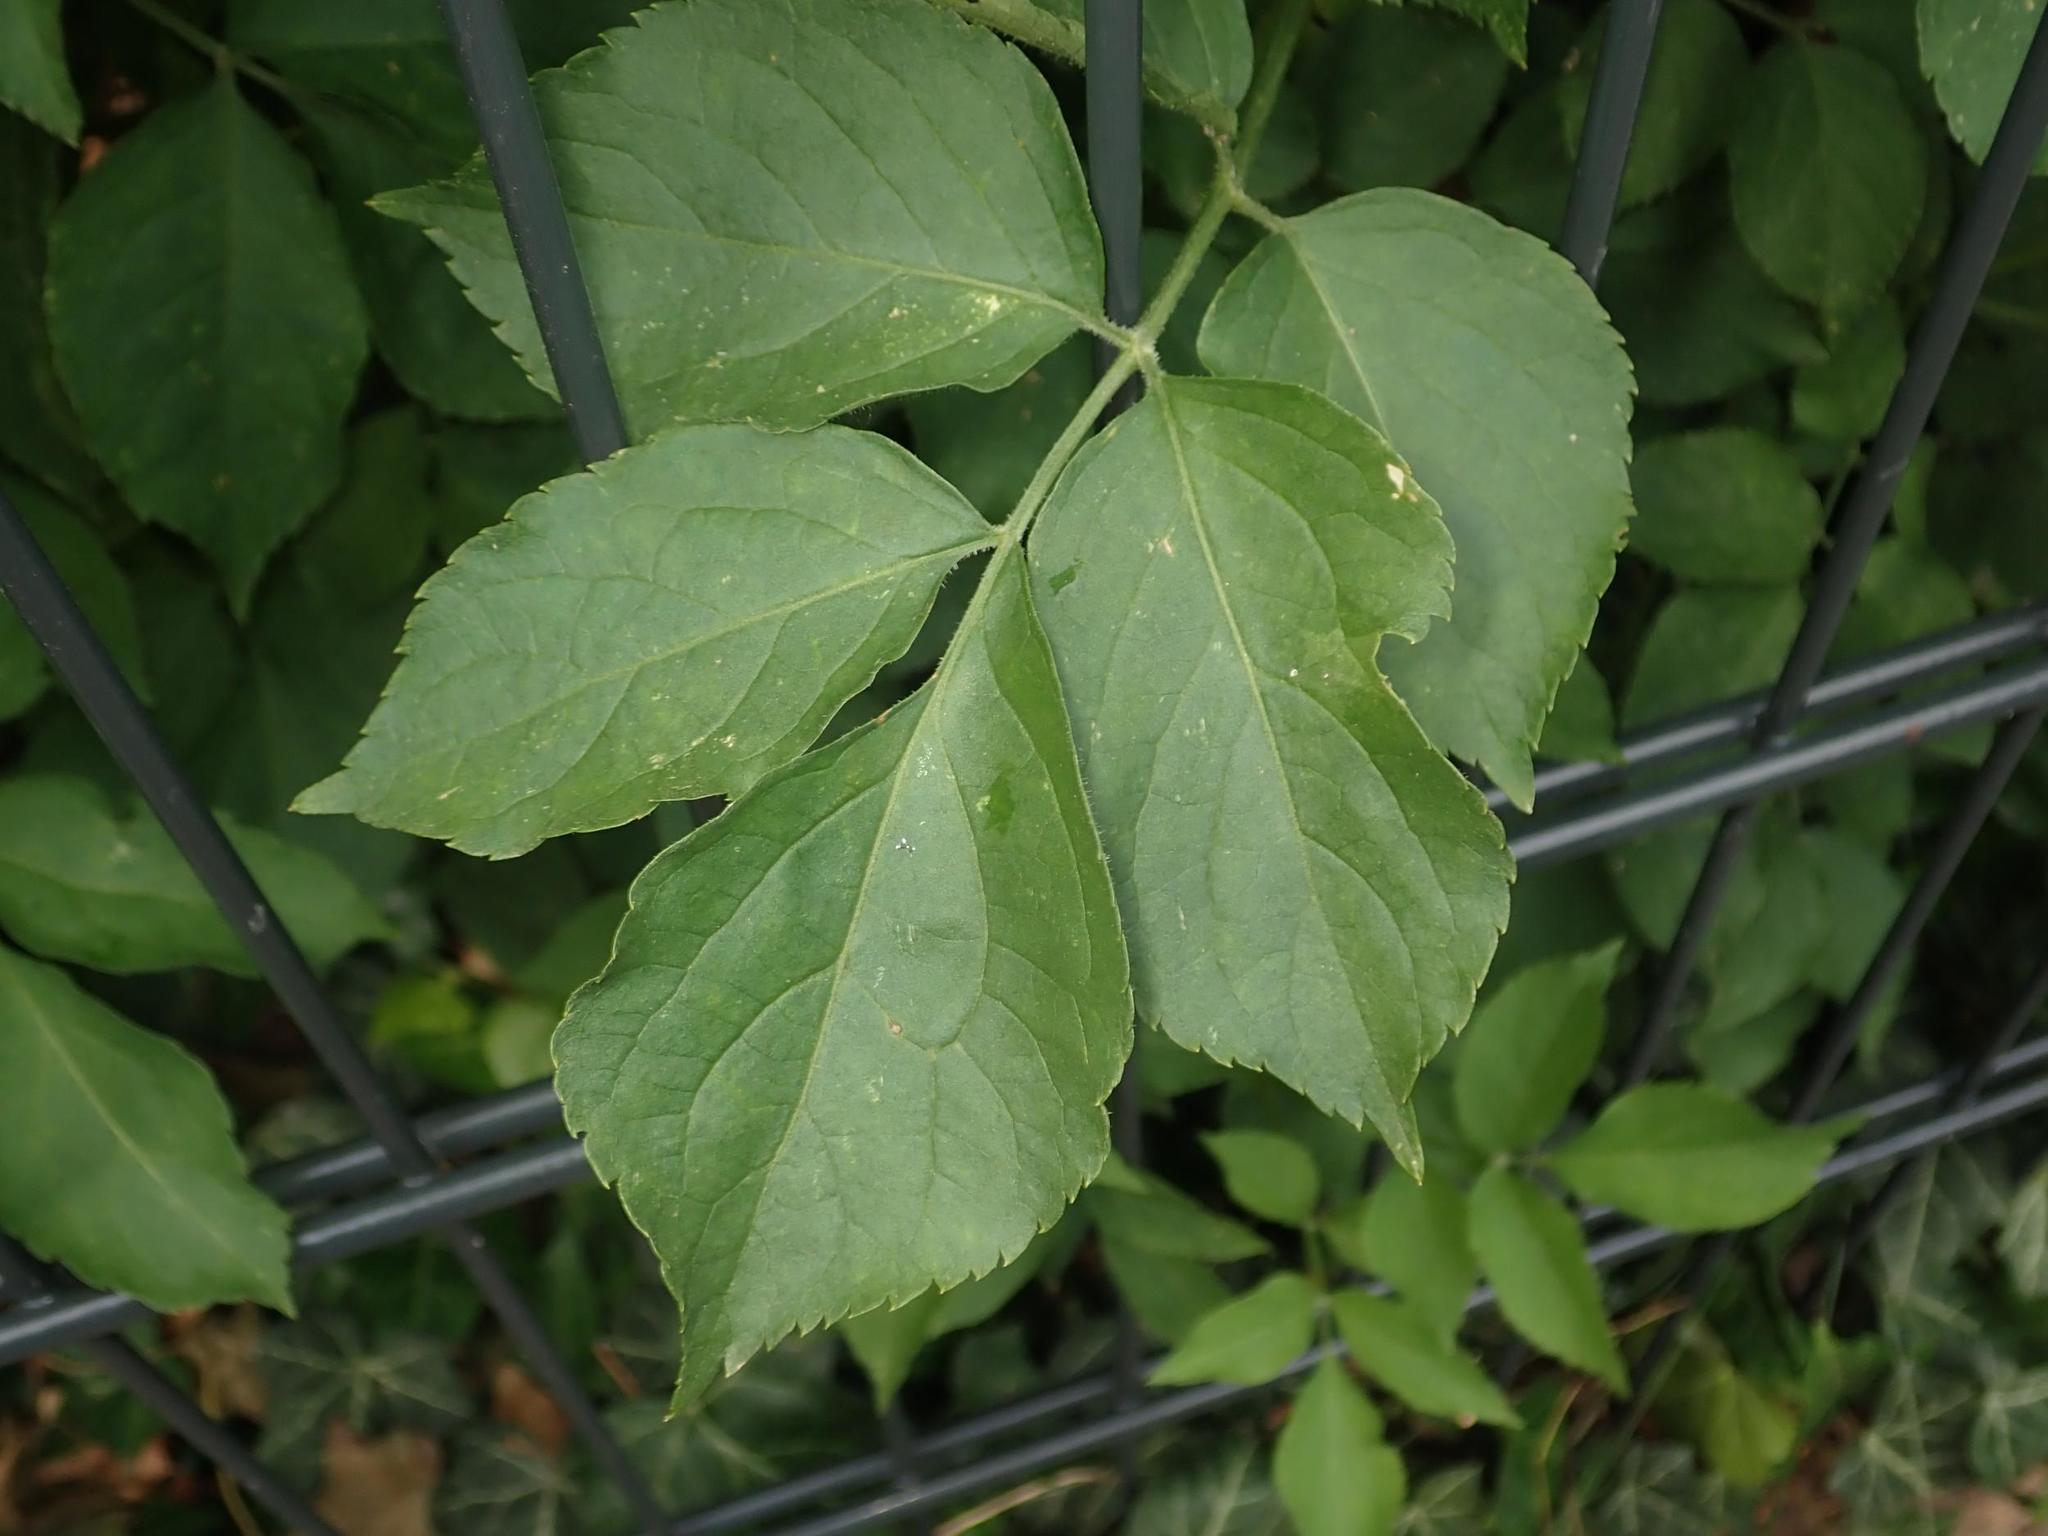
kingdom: Plantae
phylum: Tracheophyta
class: Magnoliopsida
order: Dipsacales
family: Viburnaceae
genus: Sambucus
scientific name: Sambucus nigra
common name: Elder
